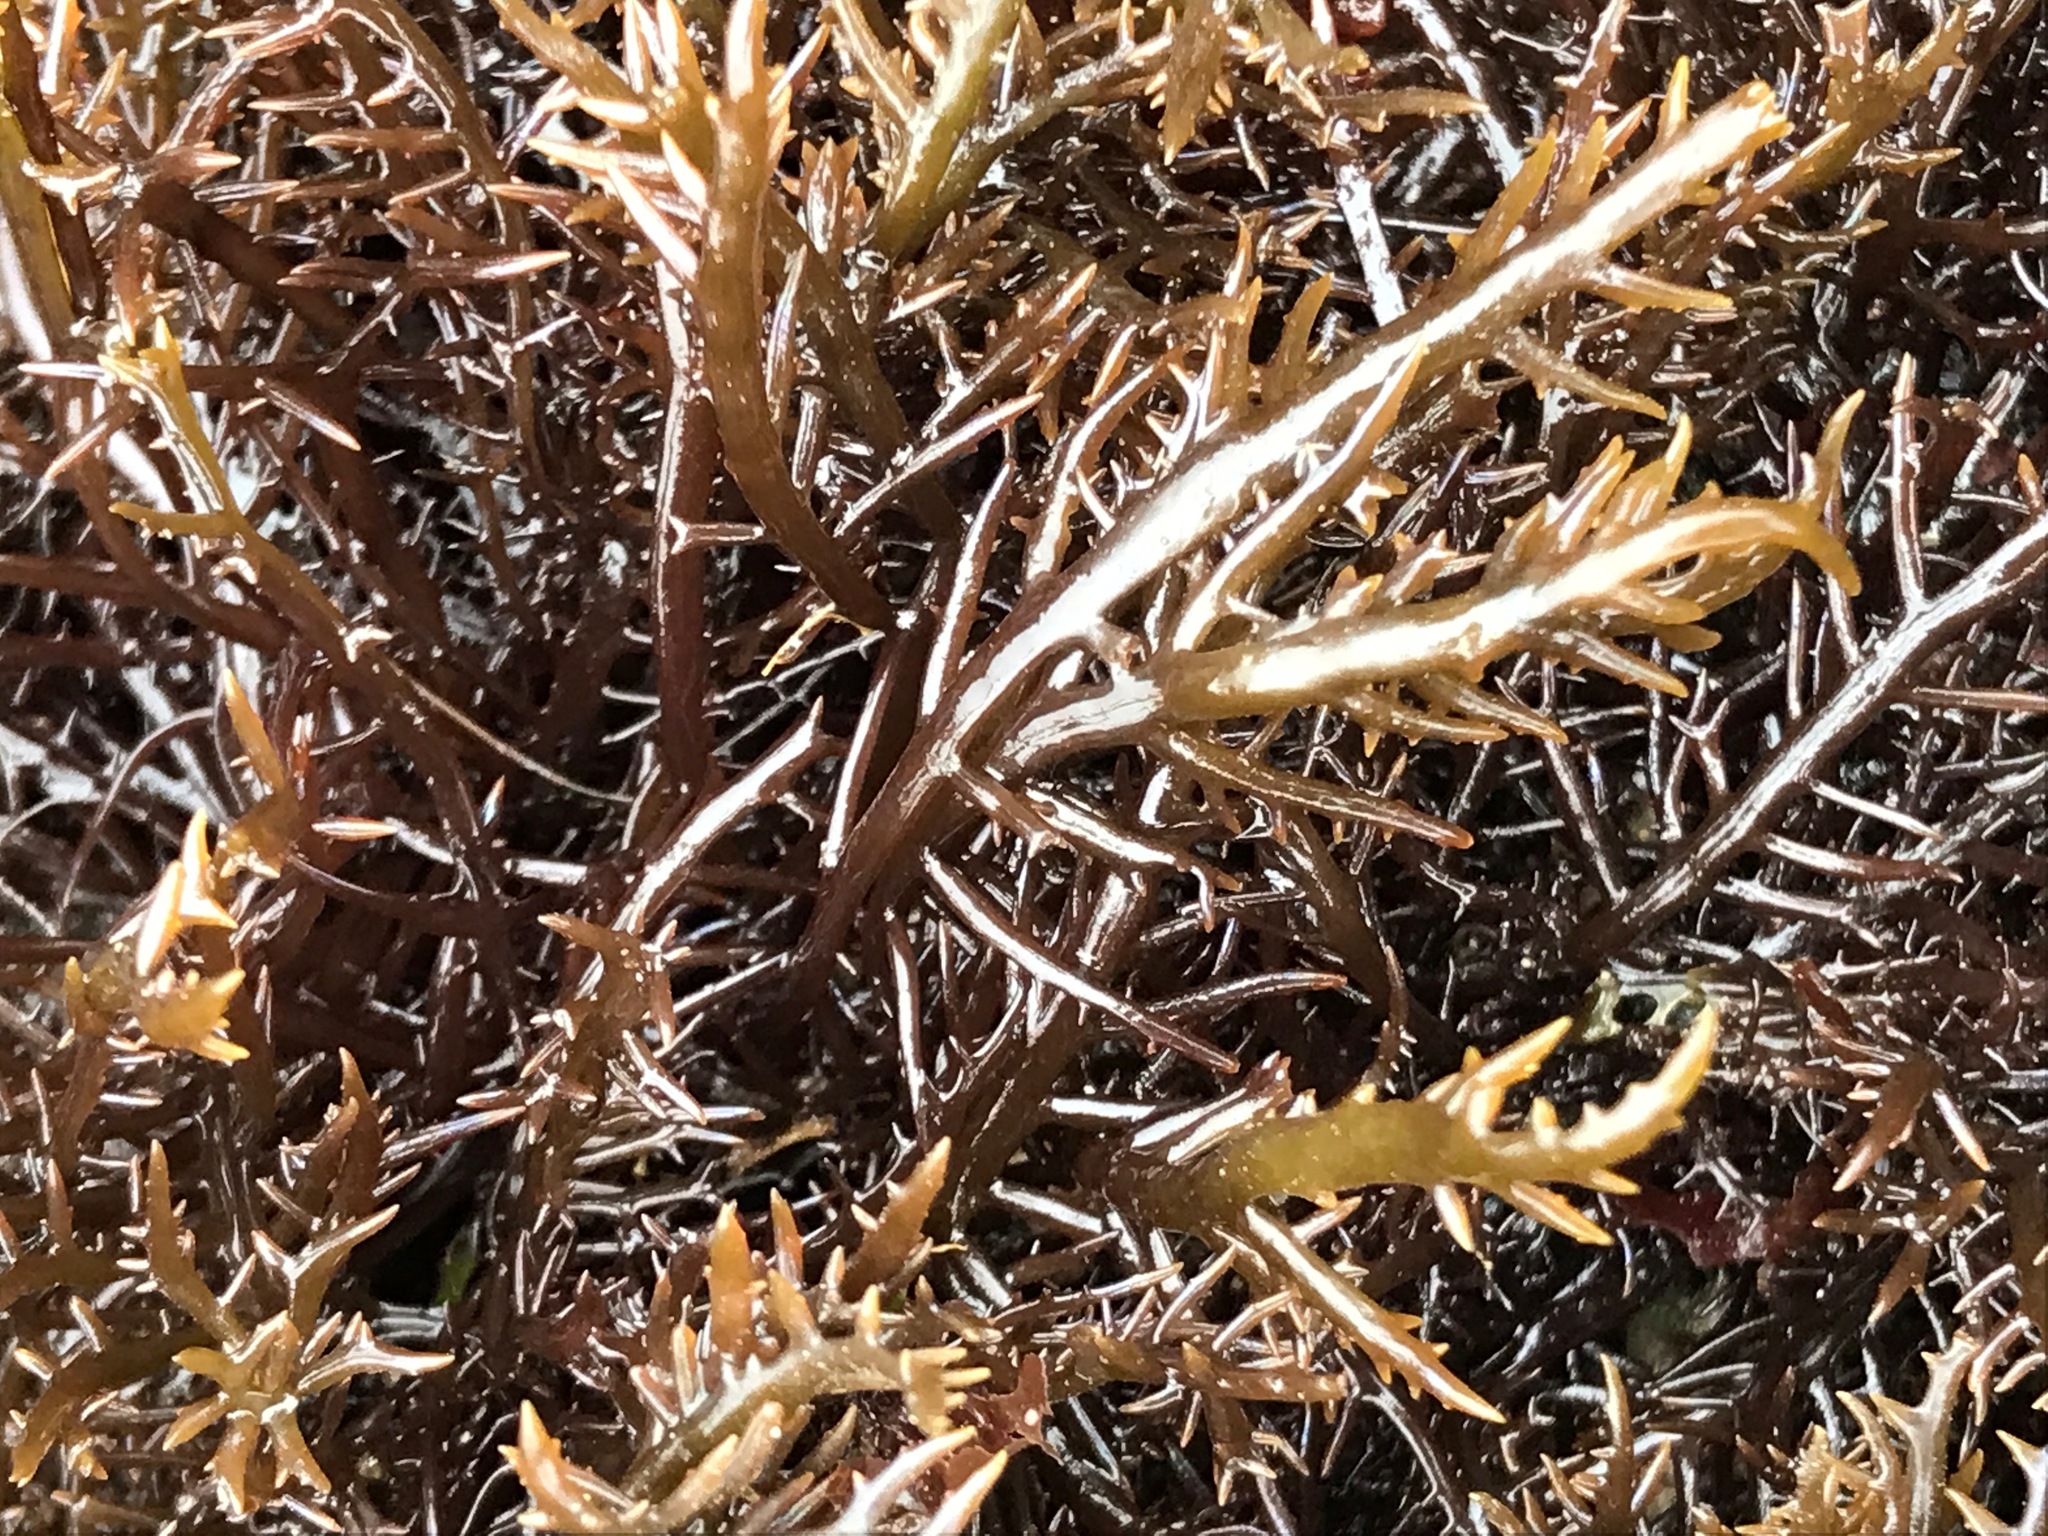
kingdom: Plantae
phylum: Rhodophyta
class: Florideophyceae
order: Gigartinales
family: Gigartinaceae
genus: Chondracanthus
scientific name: Chondracanthus canaliculatus
